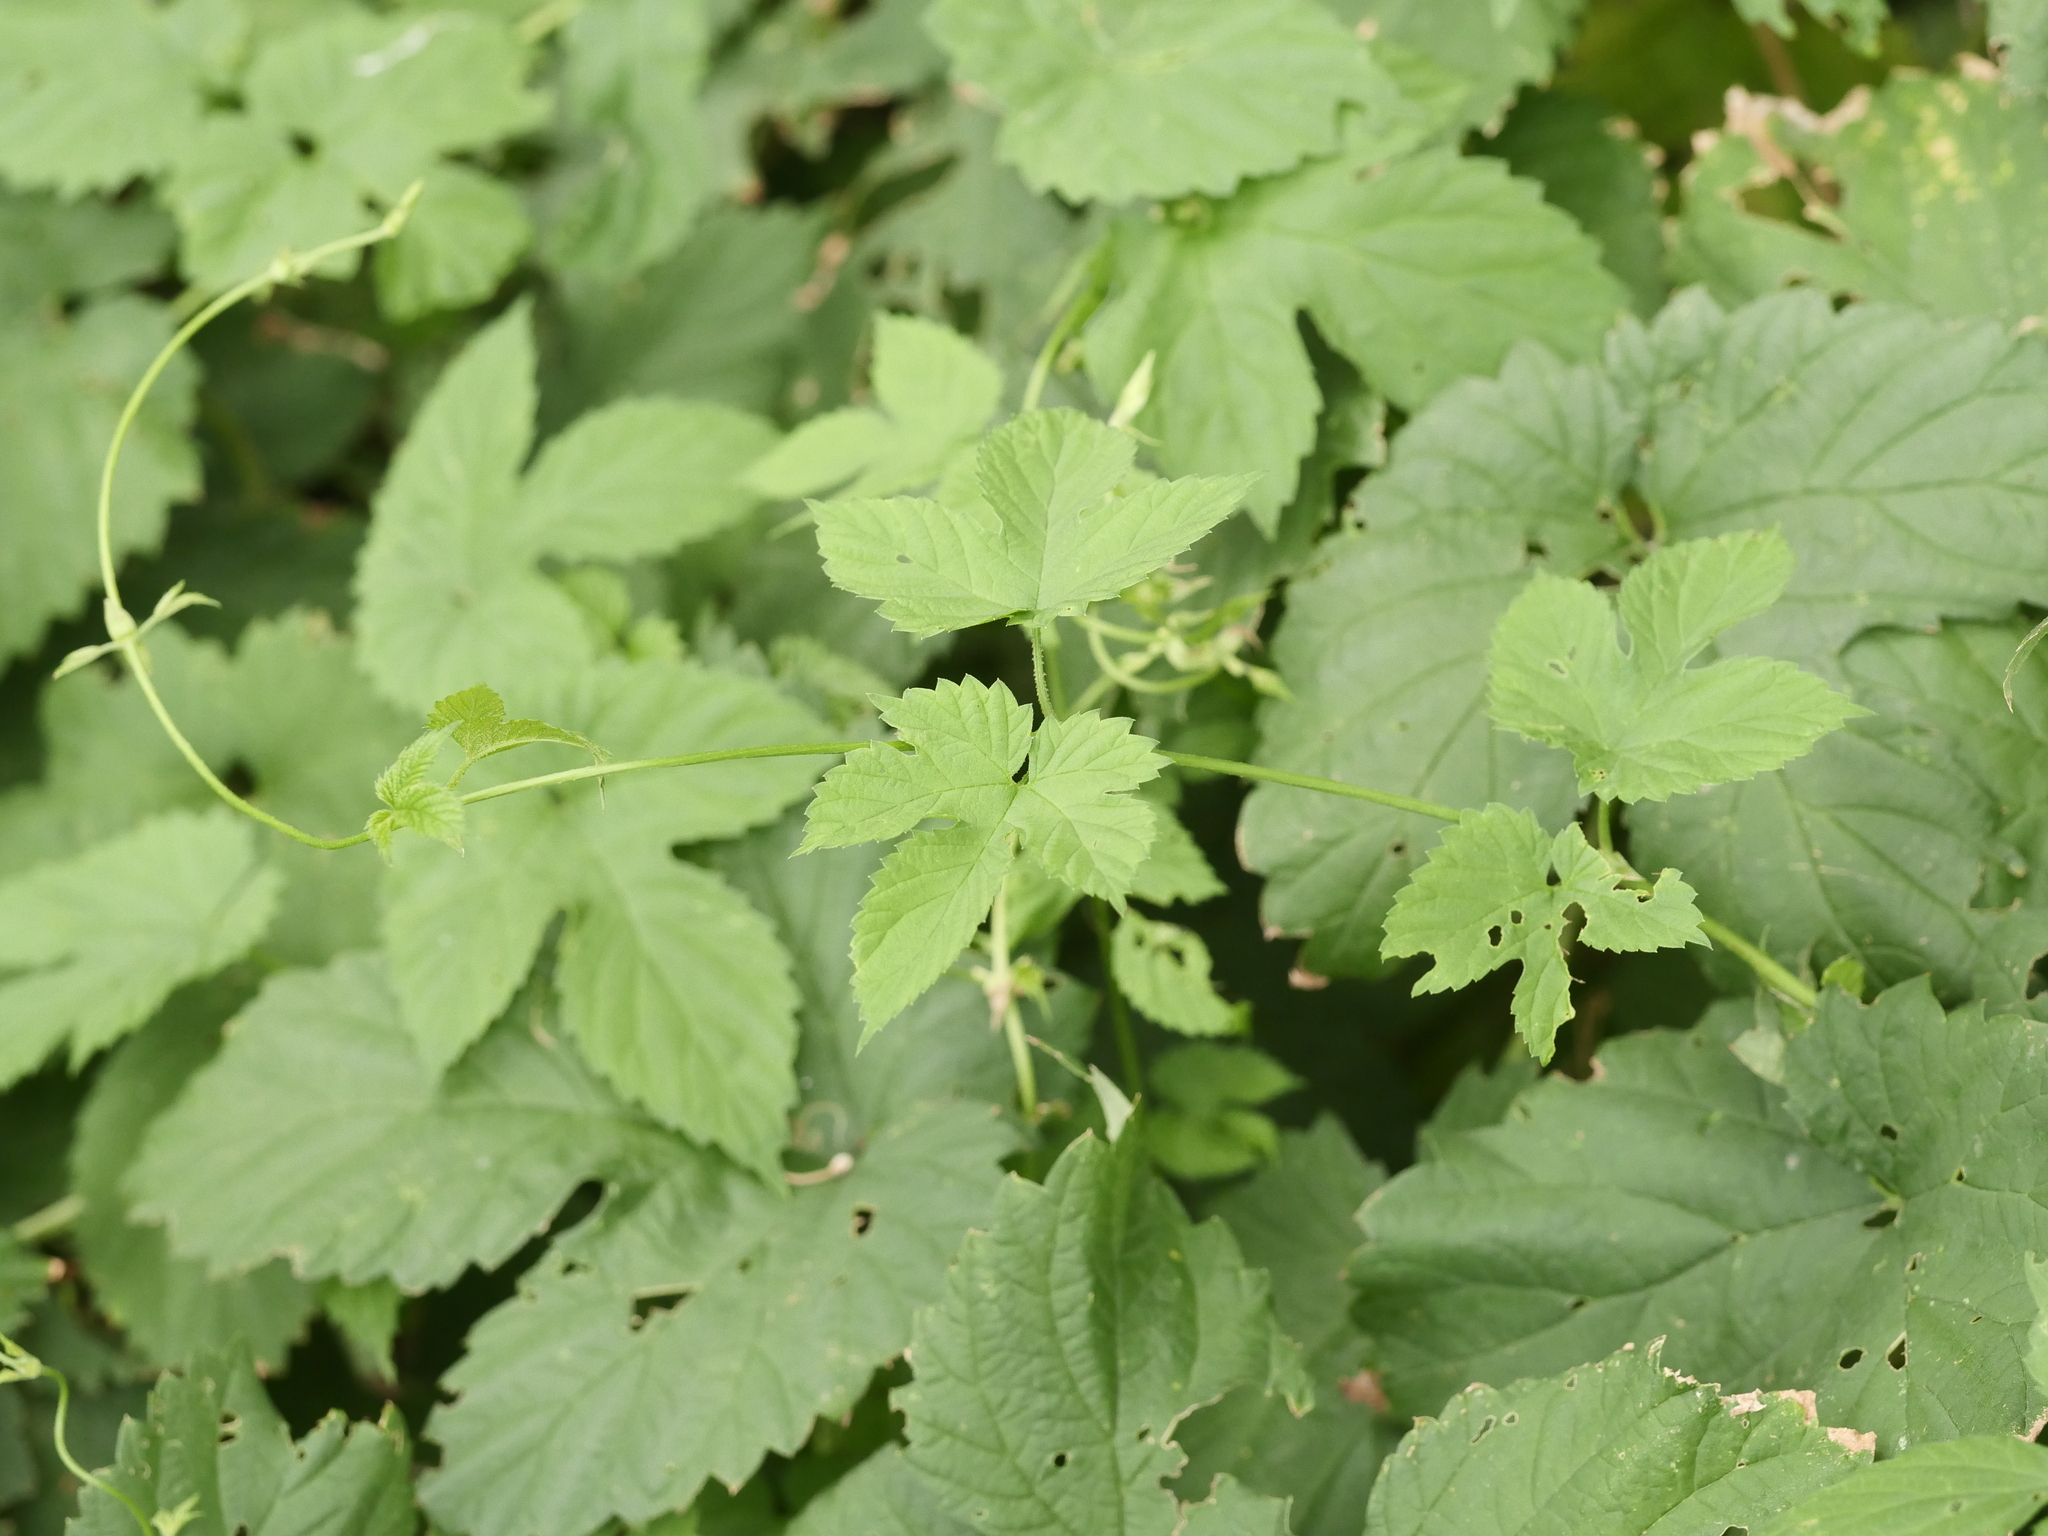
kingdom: Plantae
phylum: Tracheophyta
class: Magnoliopsida
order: Rosales
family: Cannabaceae
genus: Humulus
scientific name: Humulus lupulus
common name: Hop
